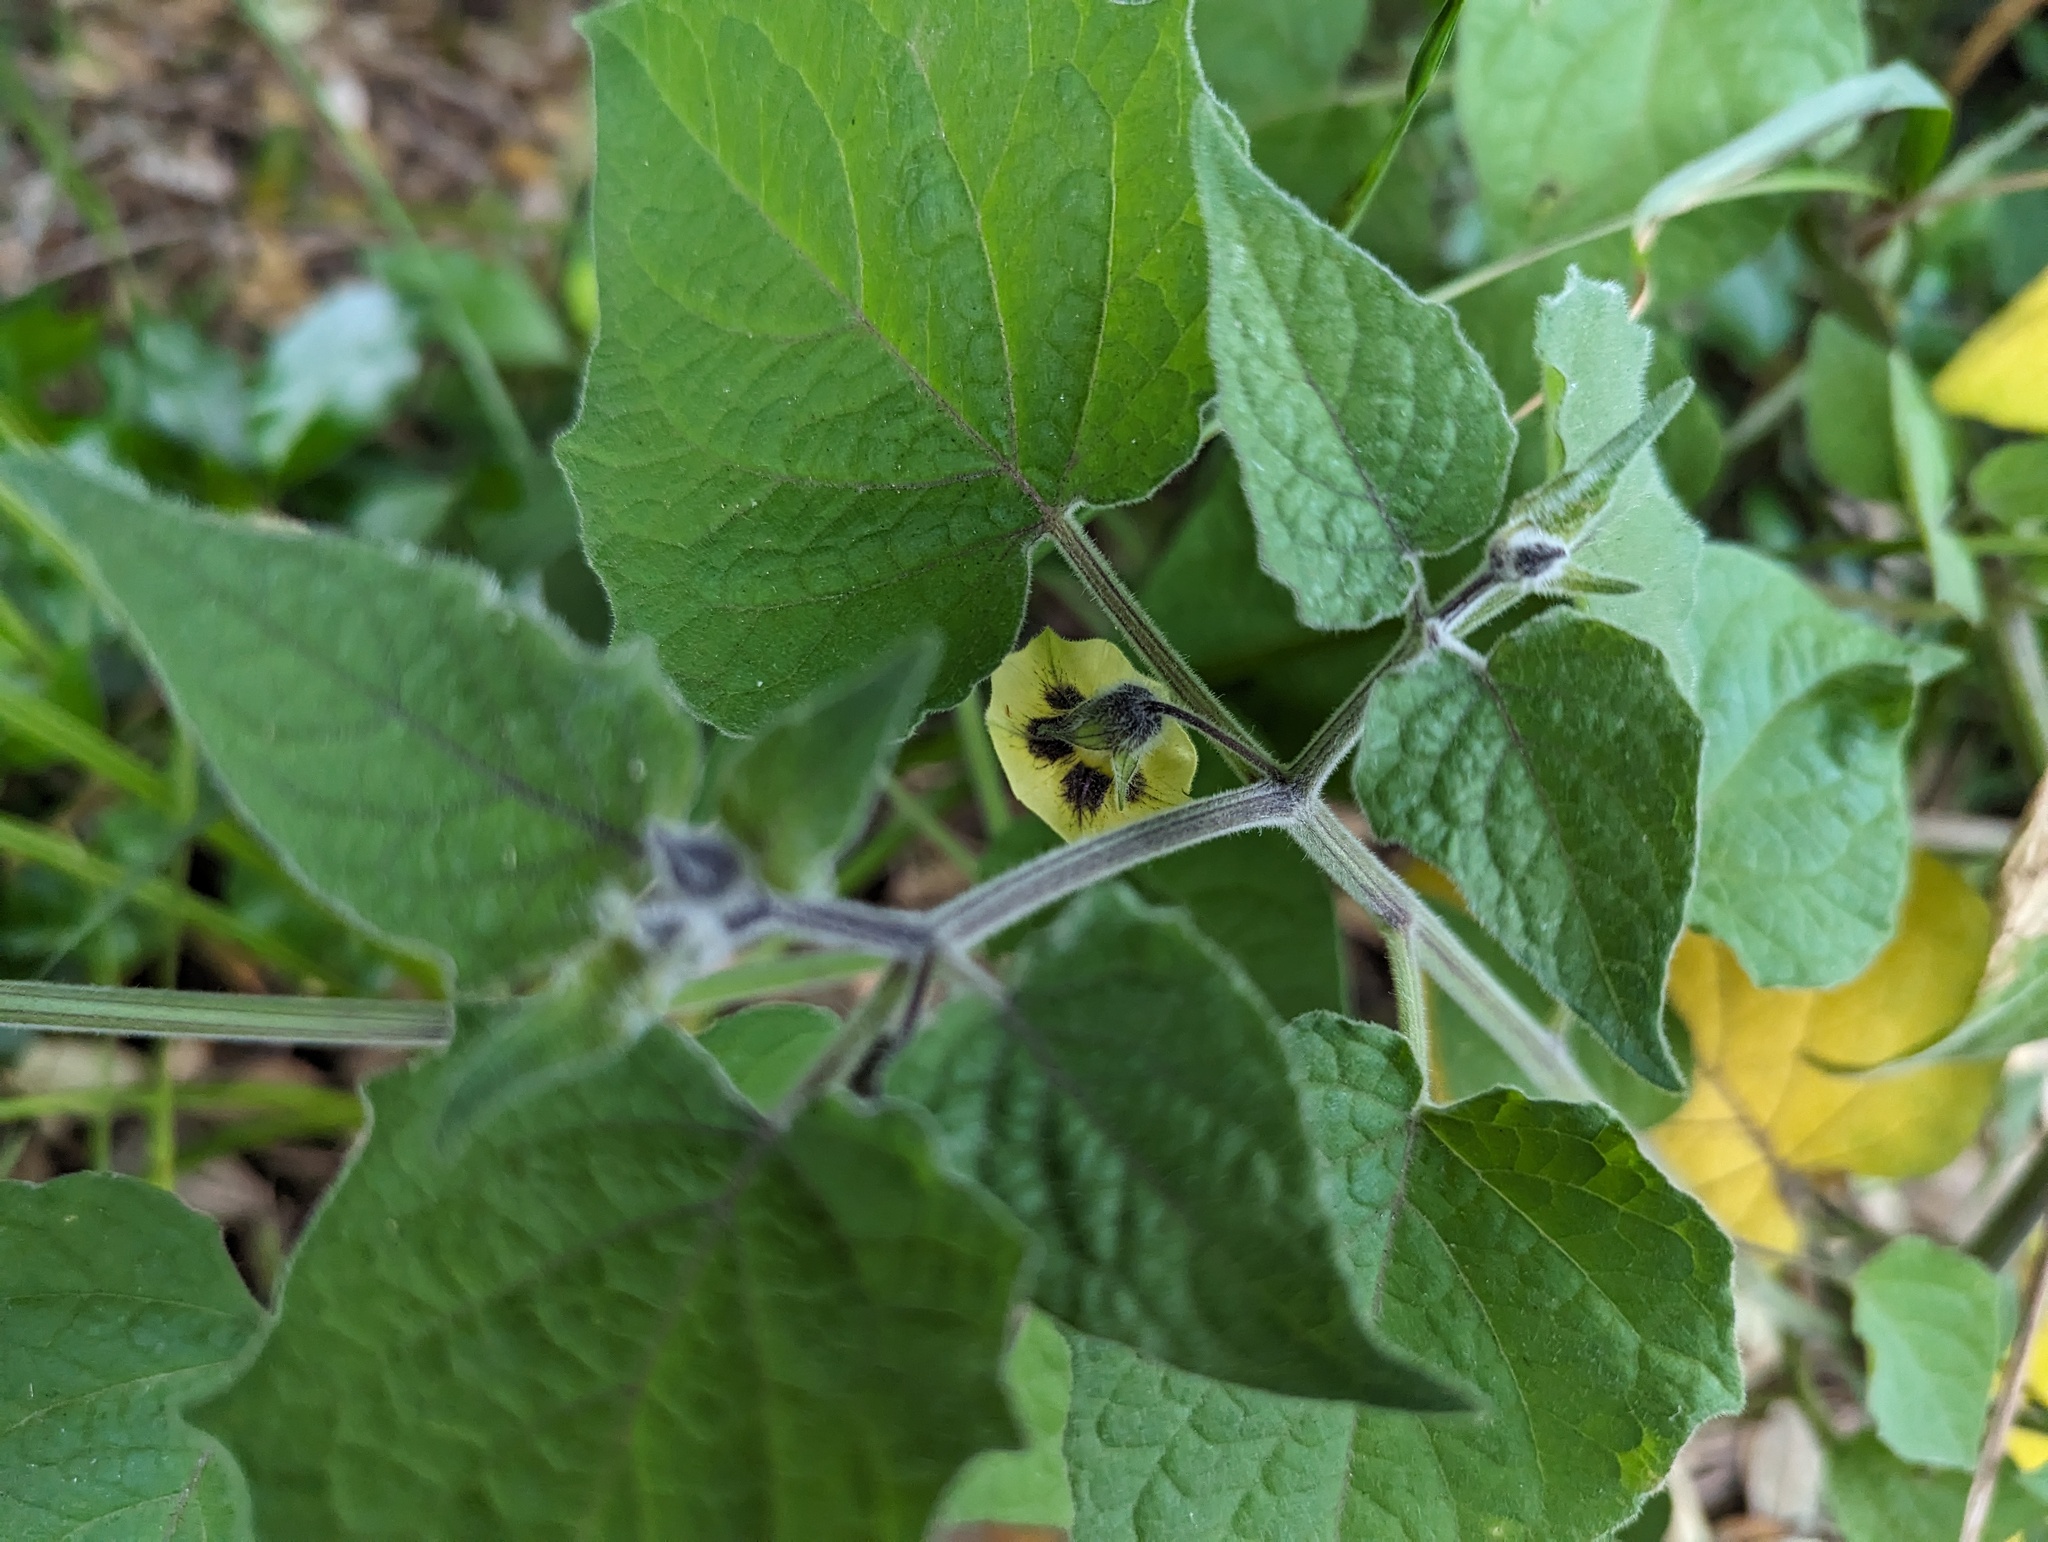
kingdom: Plantae
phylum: Tracheophyta
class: Magnoliopsida
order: Solanales
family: Solanaceae
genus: Physalis
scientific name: Physalis peruviana
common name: Cape-gooseberry
